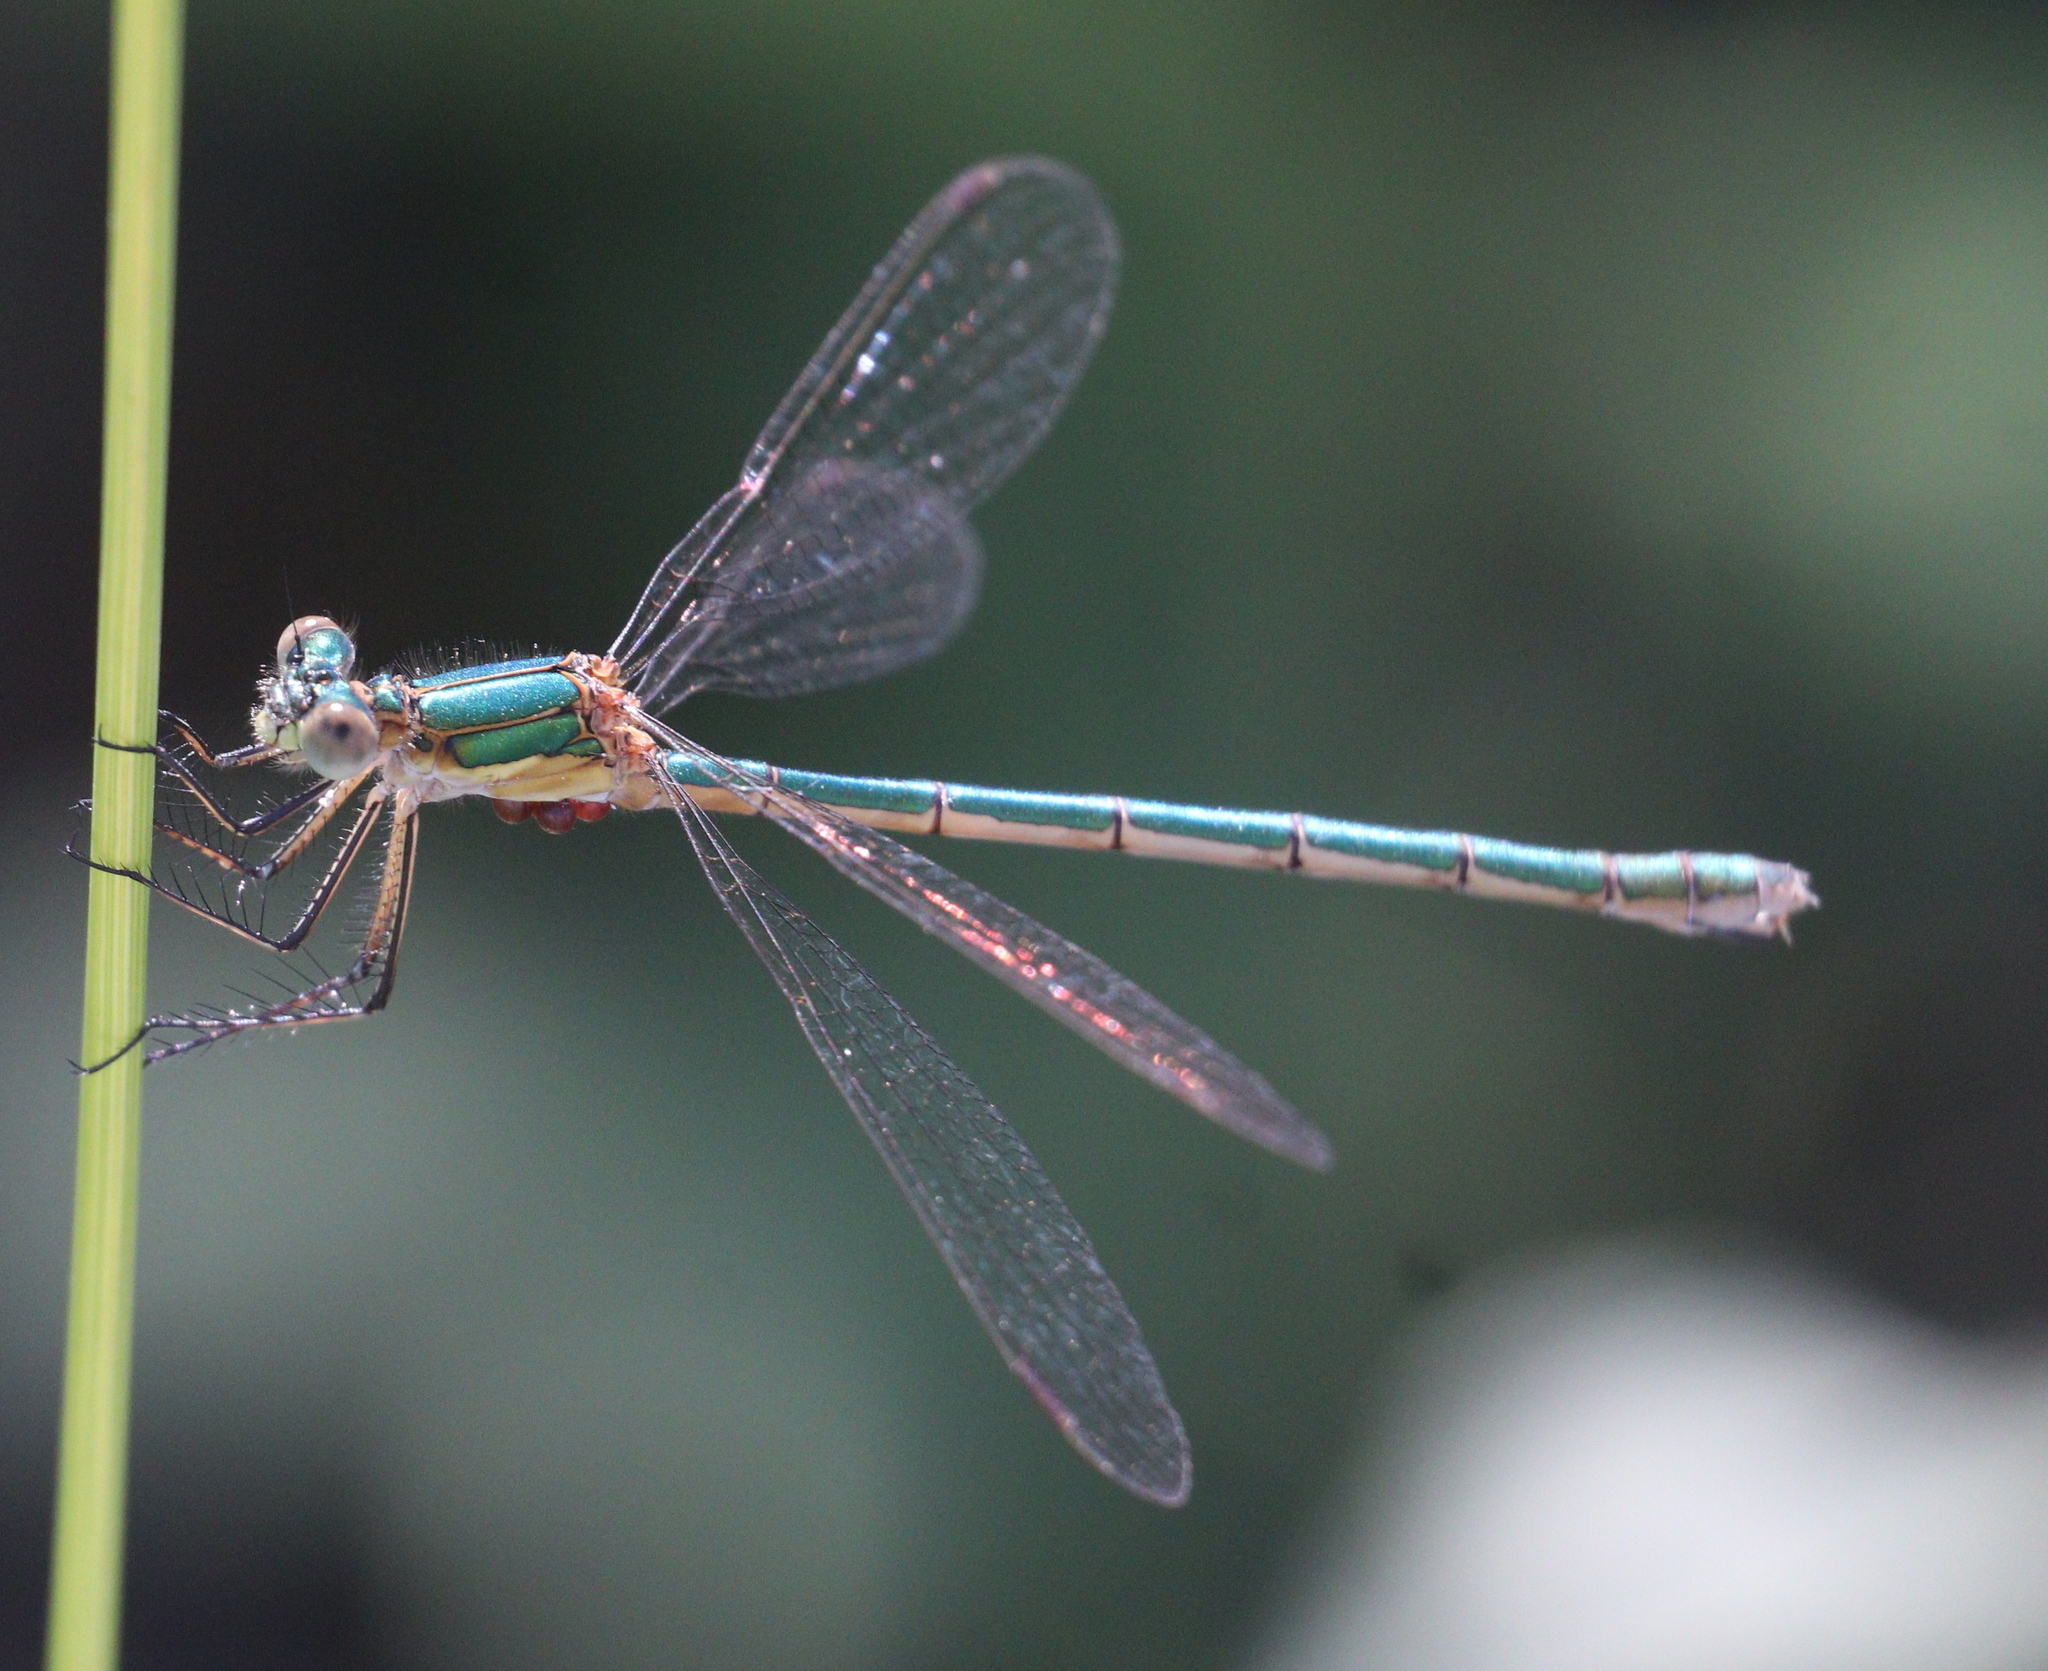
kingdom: Animalia
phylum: Arthropoda
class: Insecta
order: Odonata
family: Lestidae
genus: Lestes
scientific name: Lestes sponsa
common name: Common spreadwing
